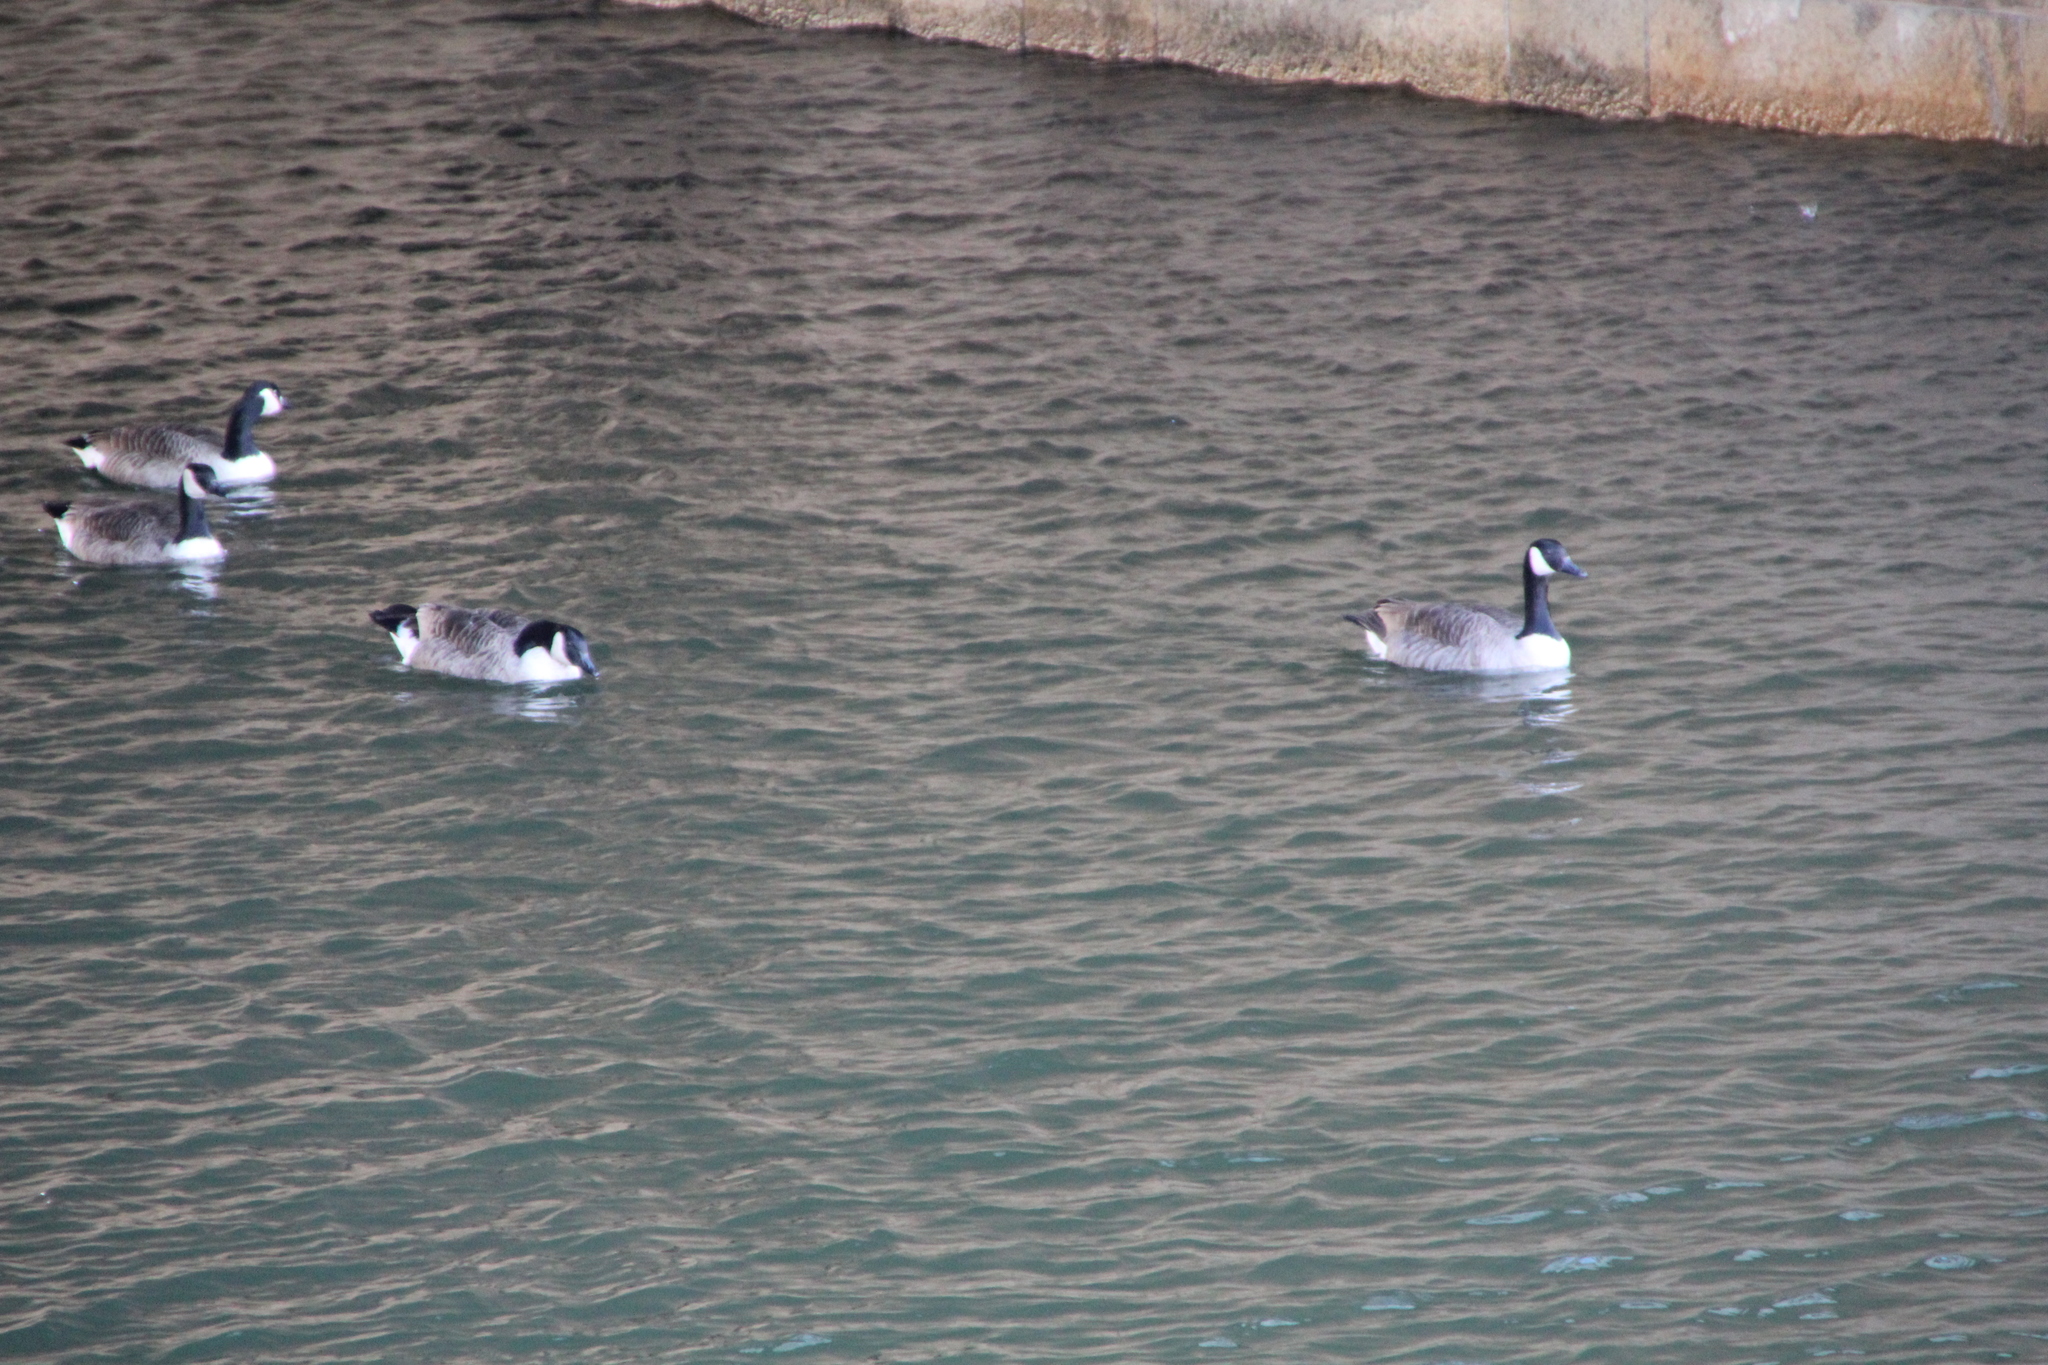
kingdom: Animalia
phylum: Chordata
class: Aves
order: Anseriformes
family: Anatidae
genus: Branta
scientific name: Branta canadensis
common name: Canada goose
